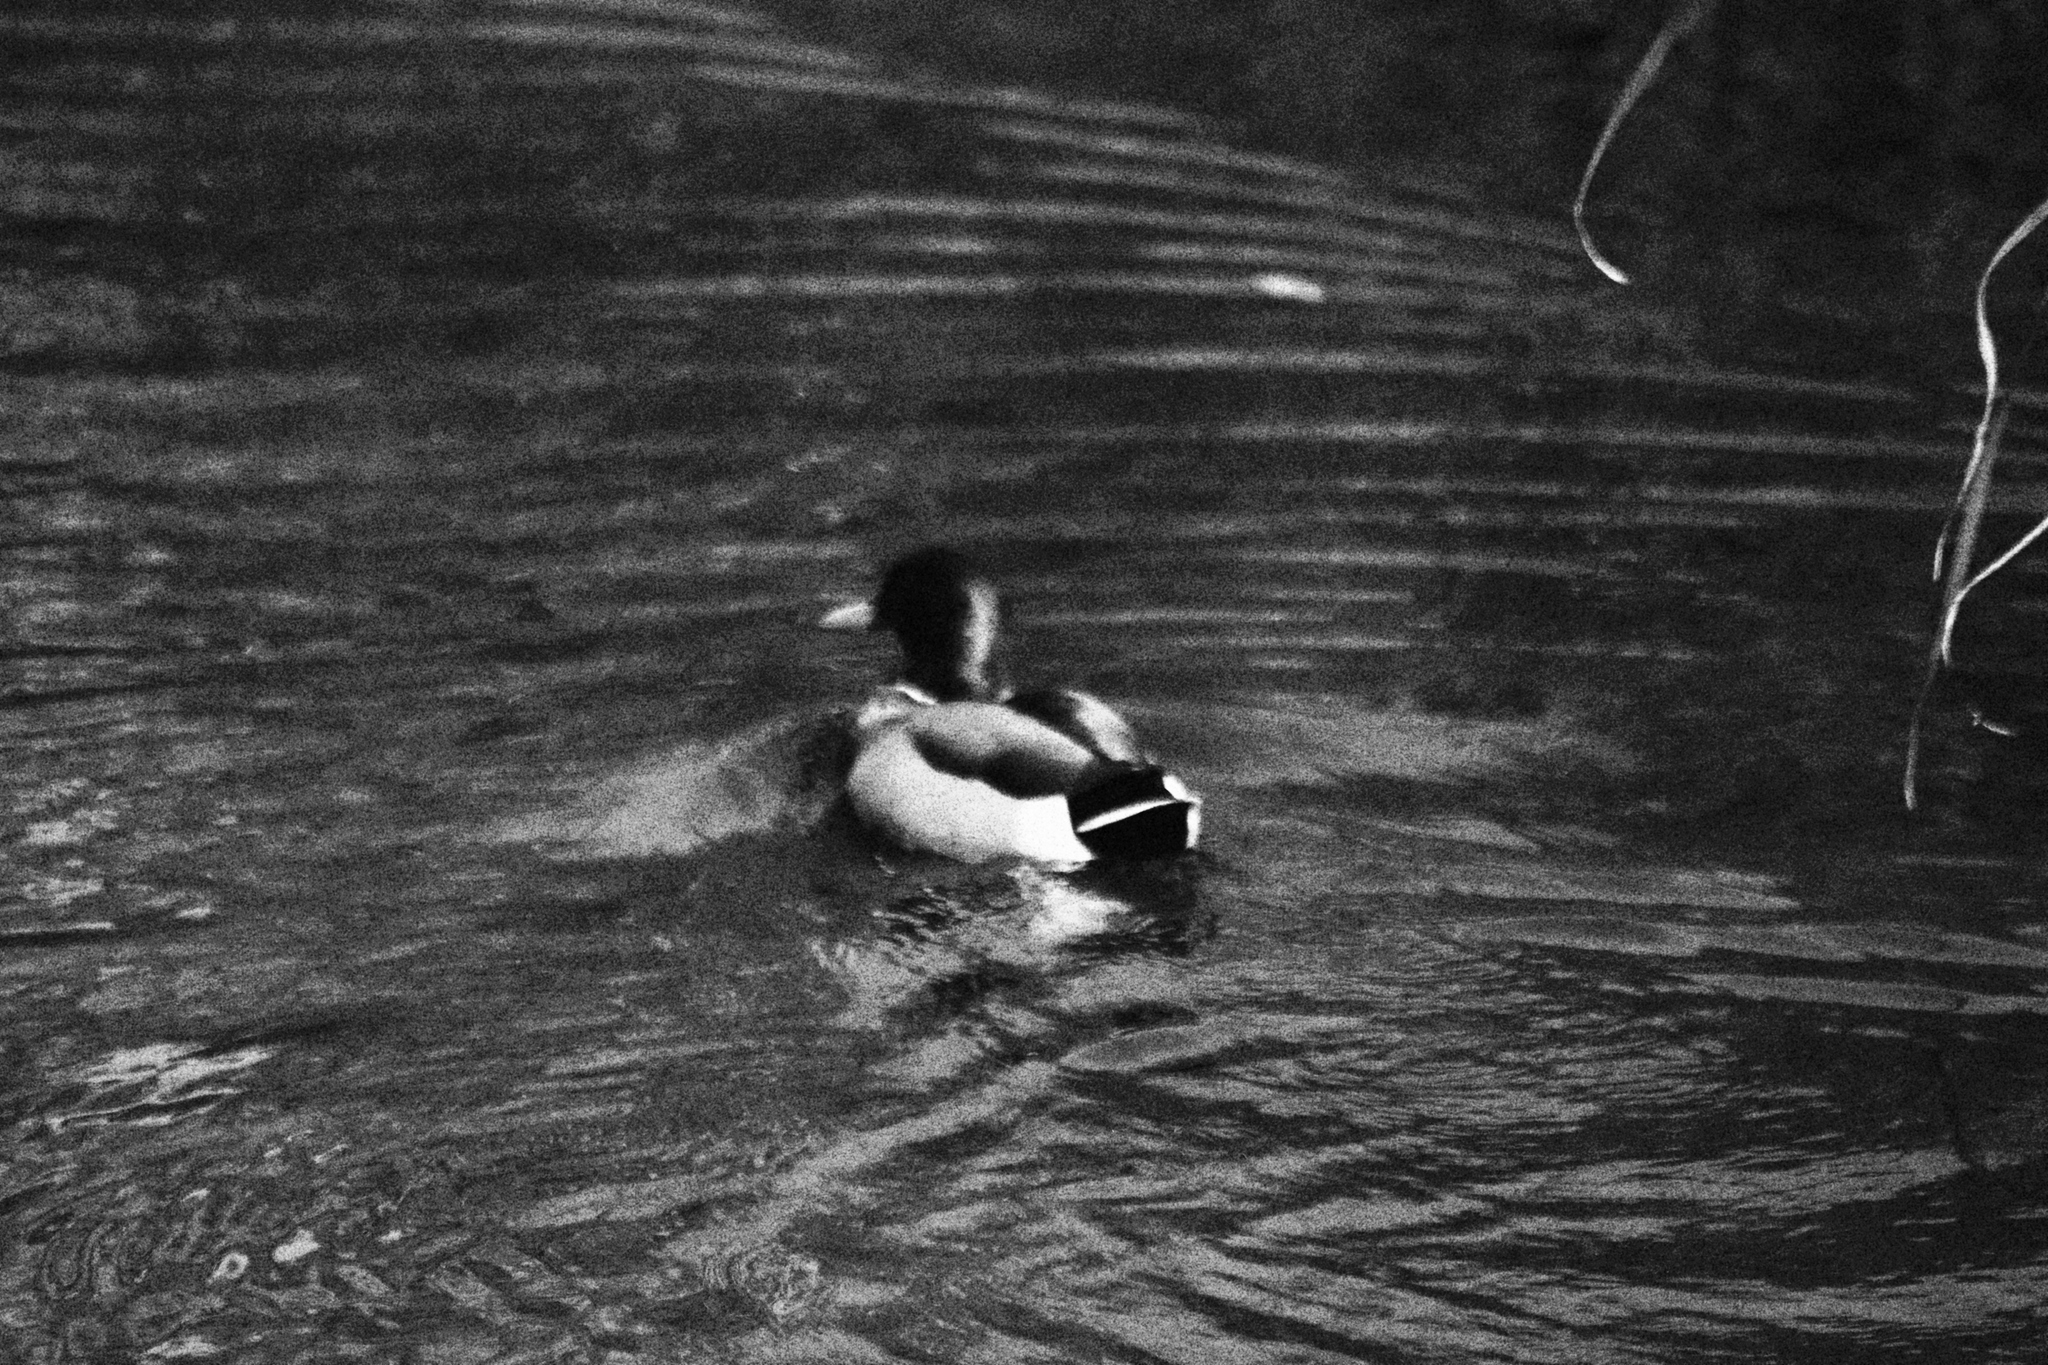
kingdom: Animalia
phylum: Chordata
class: Aves
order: Anseriformes
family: Anatidae
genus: Anas
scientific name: Anas platyrhynchos
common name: Mallard
